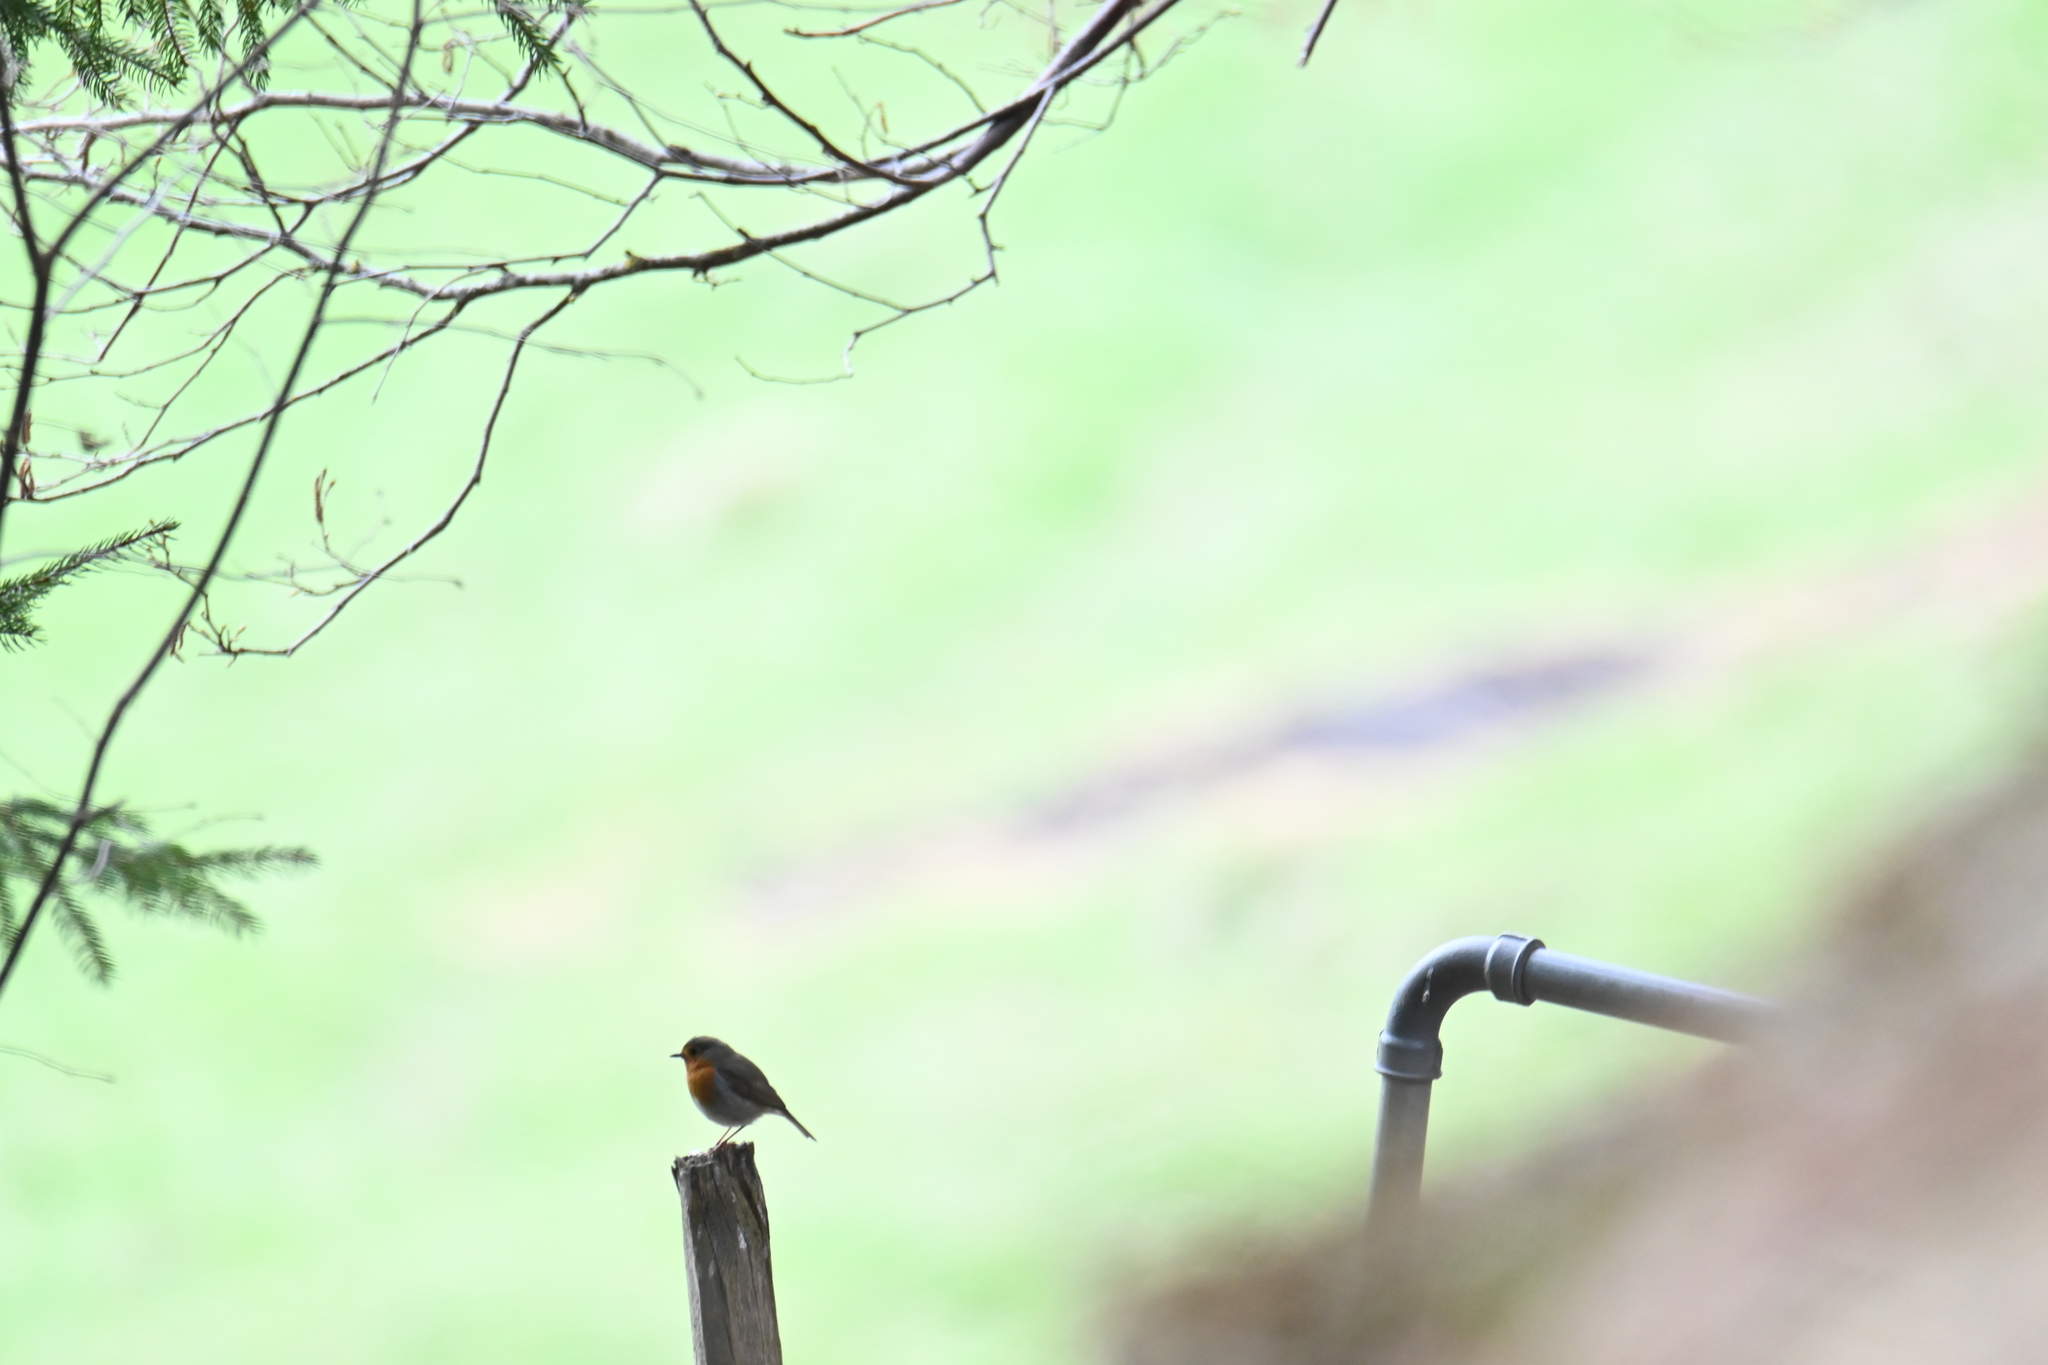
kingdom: Animalia
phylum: Chordata
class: Aves
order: Passeriformes
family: Muscicapidae
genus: Erithacus
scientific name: Erithacus rubecula
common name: European robin
